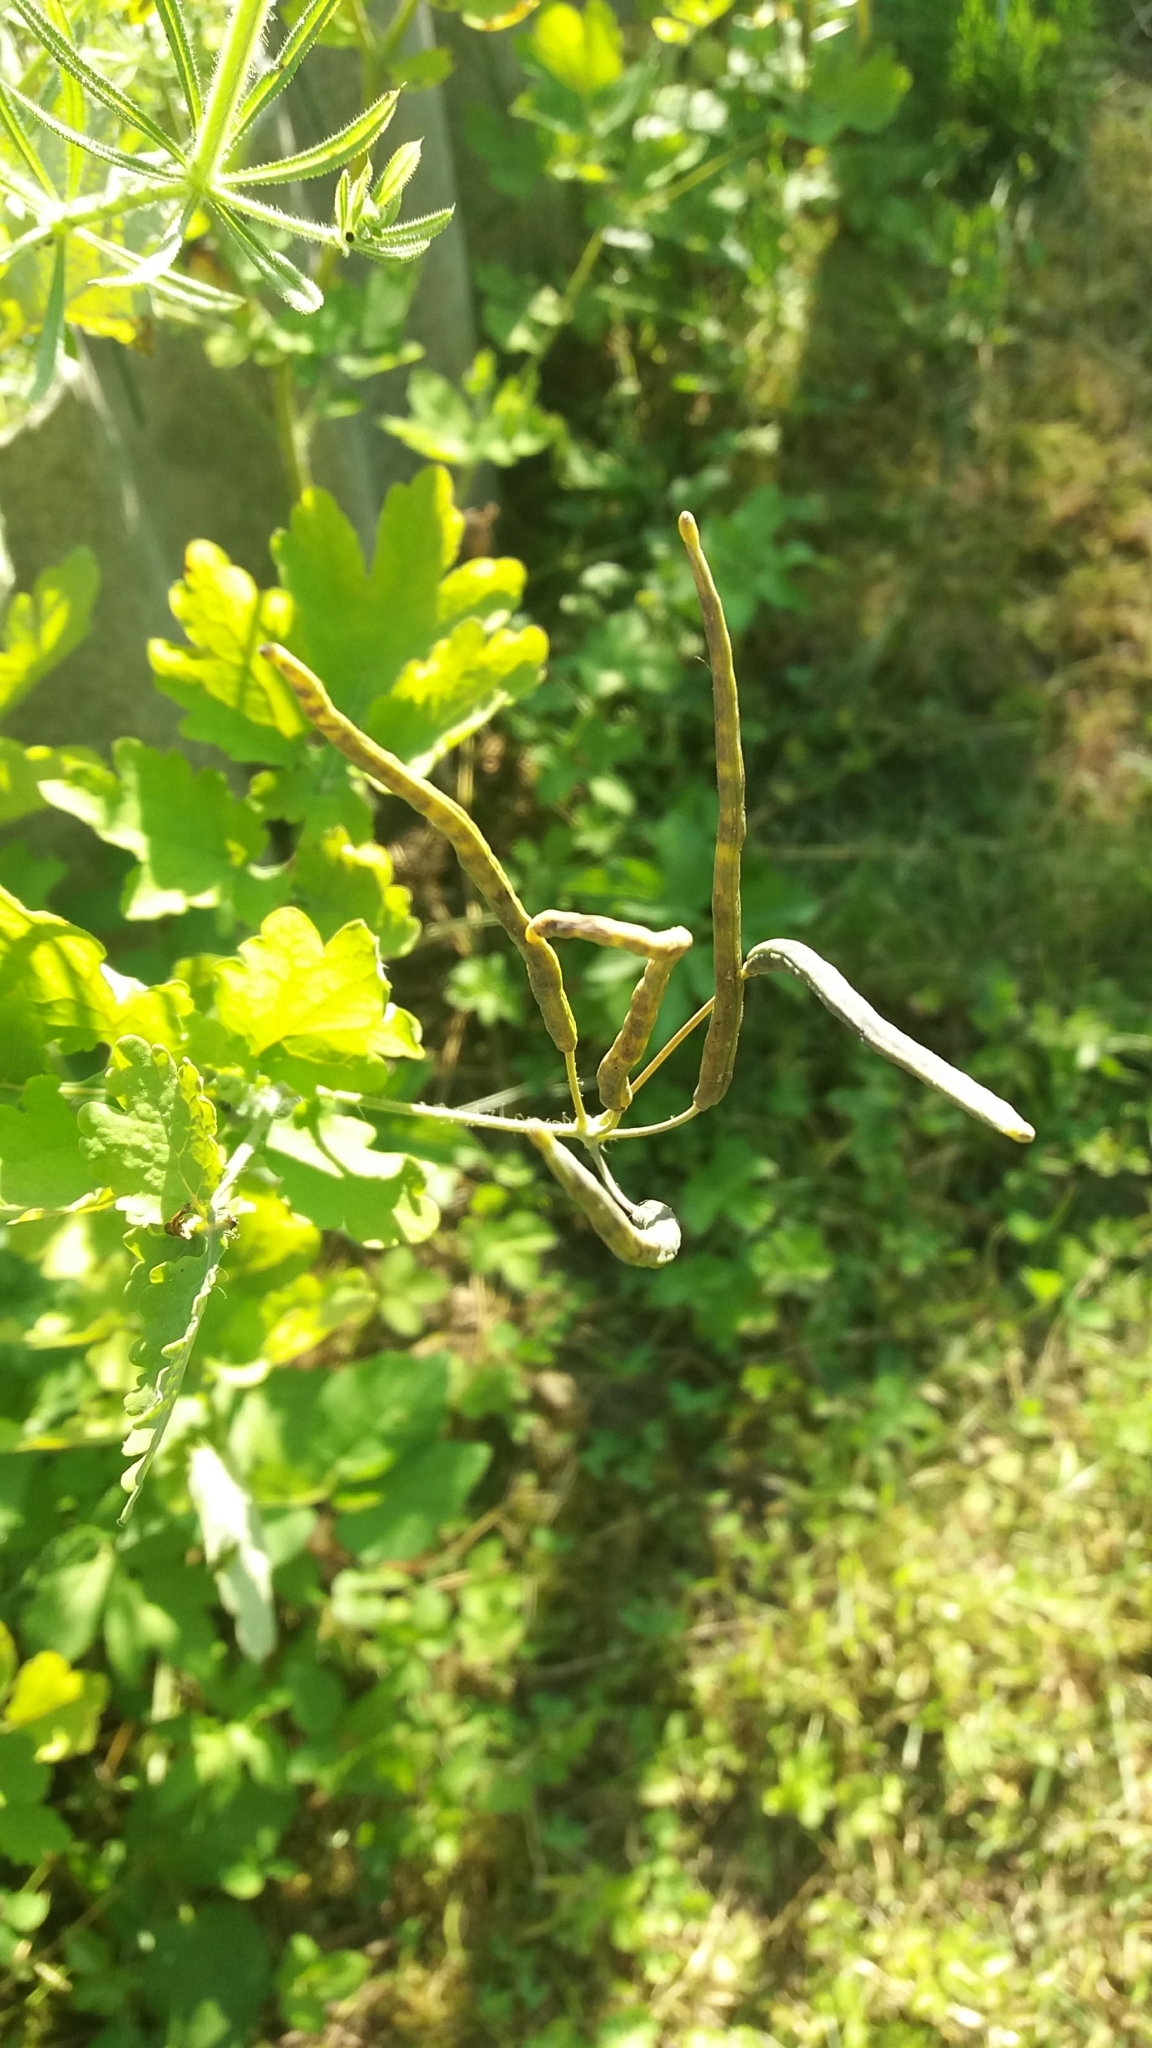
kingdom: Plantae
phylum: Tracheophyta
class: Magnoliopsida
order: Ranunculales
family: Papaveraceae
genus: Chelidonium
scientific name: Chelidonium majus
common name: Greater celandine
